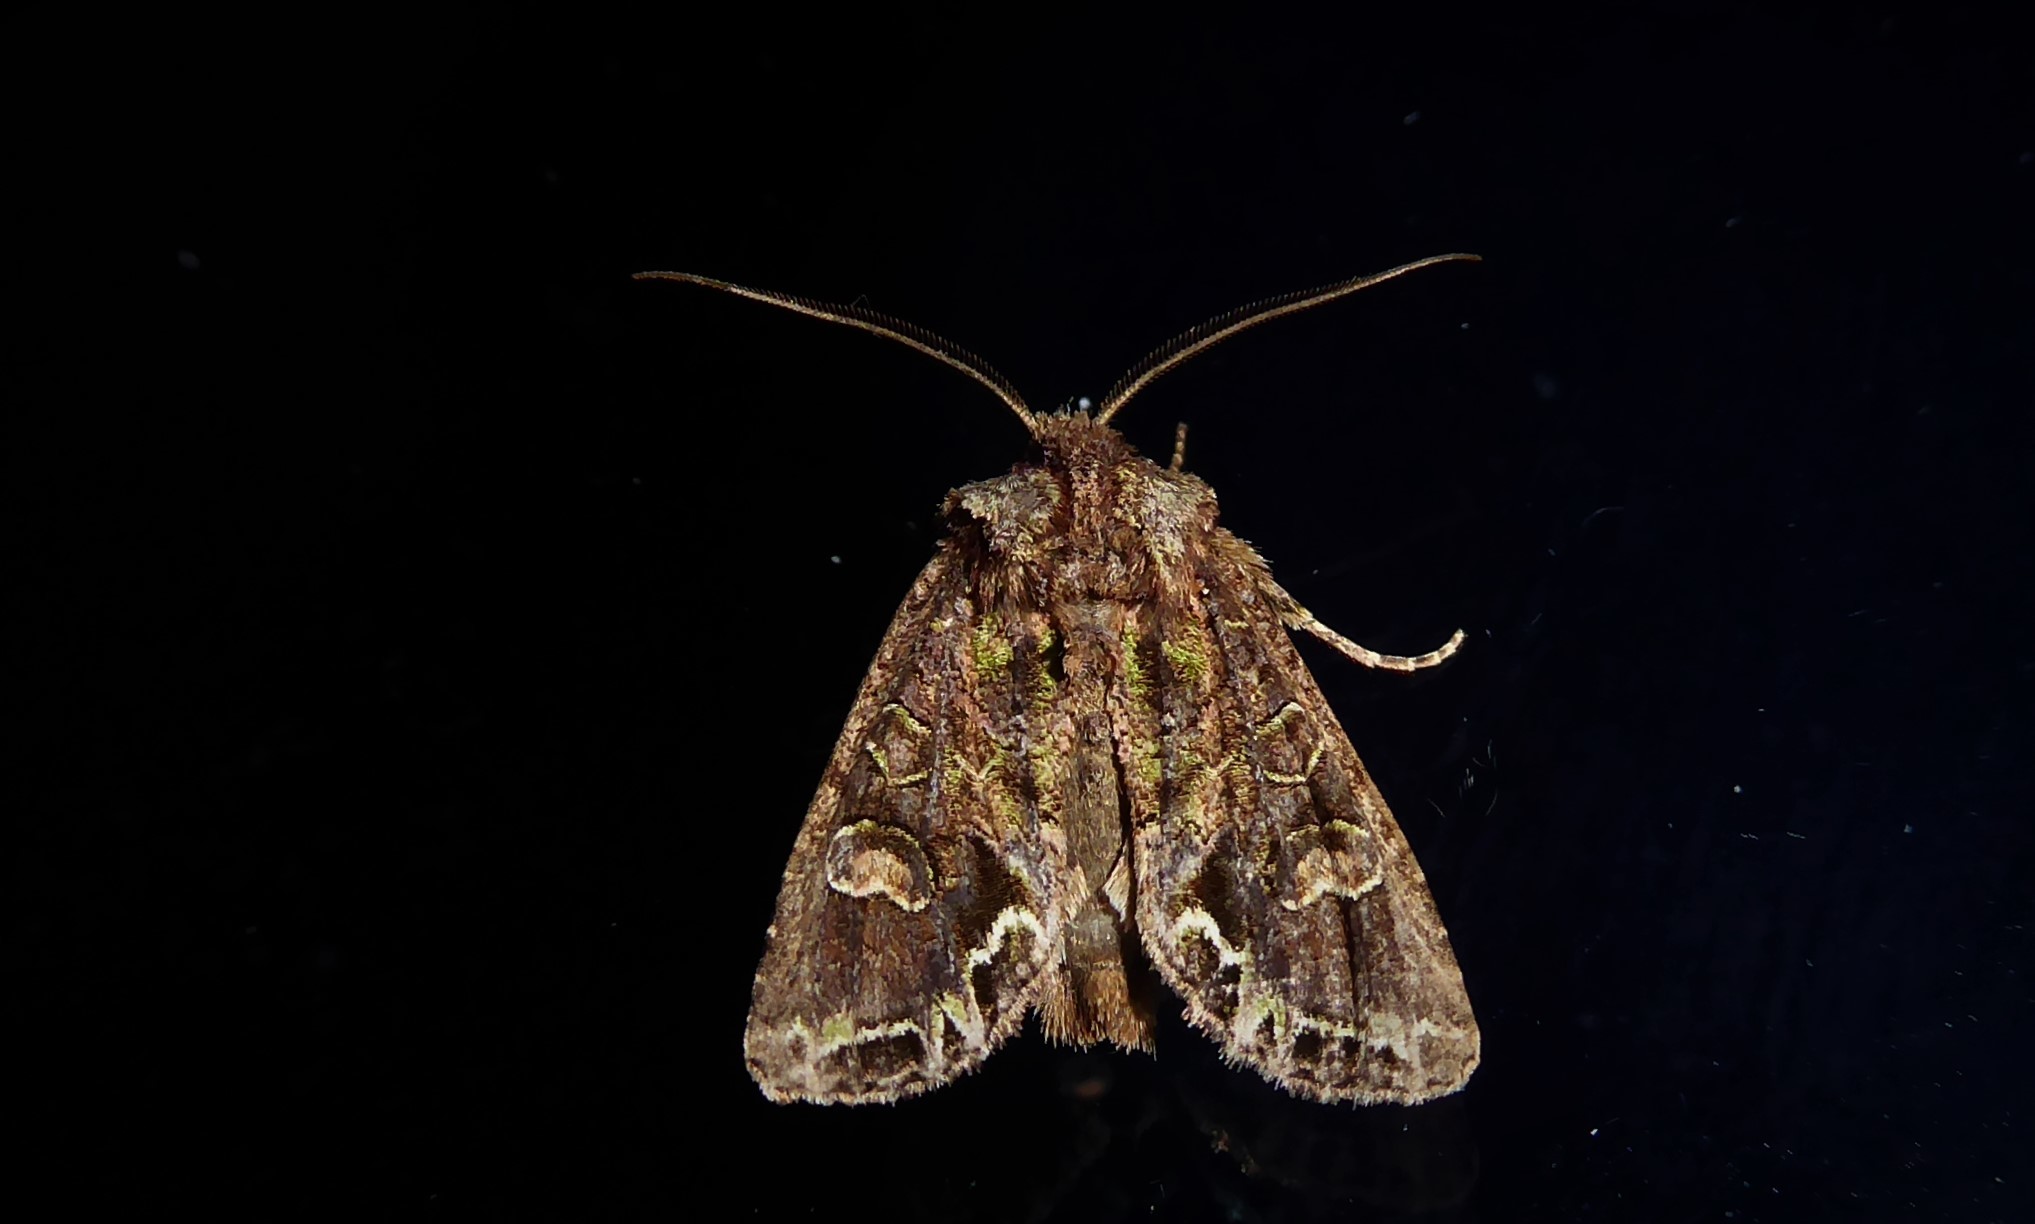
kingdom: Animalia
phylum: Arthropoda
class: Insecta
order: Lepidoptera
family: Noctuidae
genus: Ichneutica
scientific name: Ichneutica insignis
